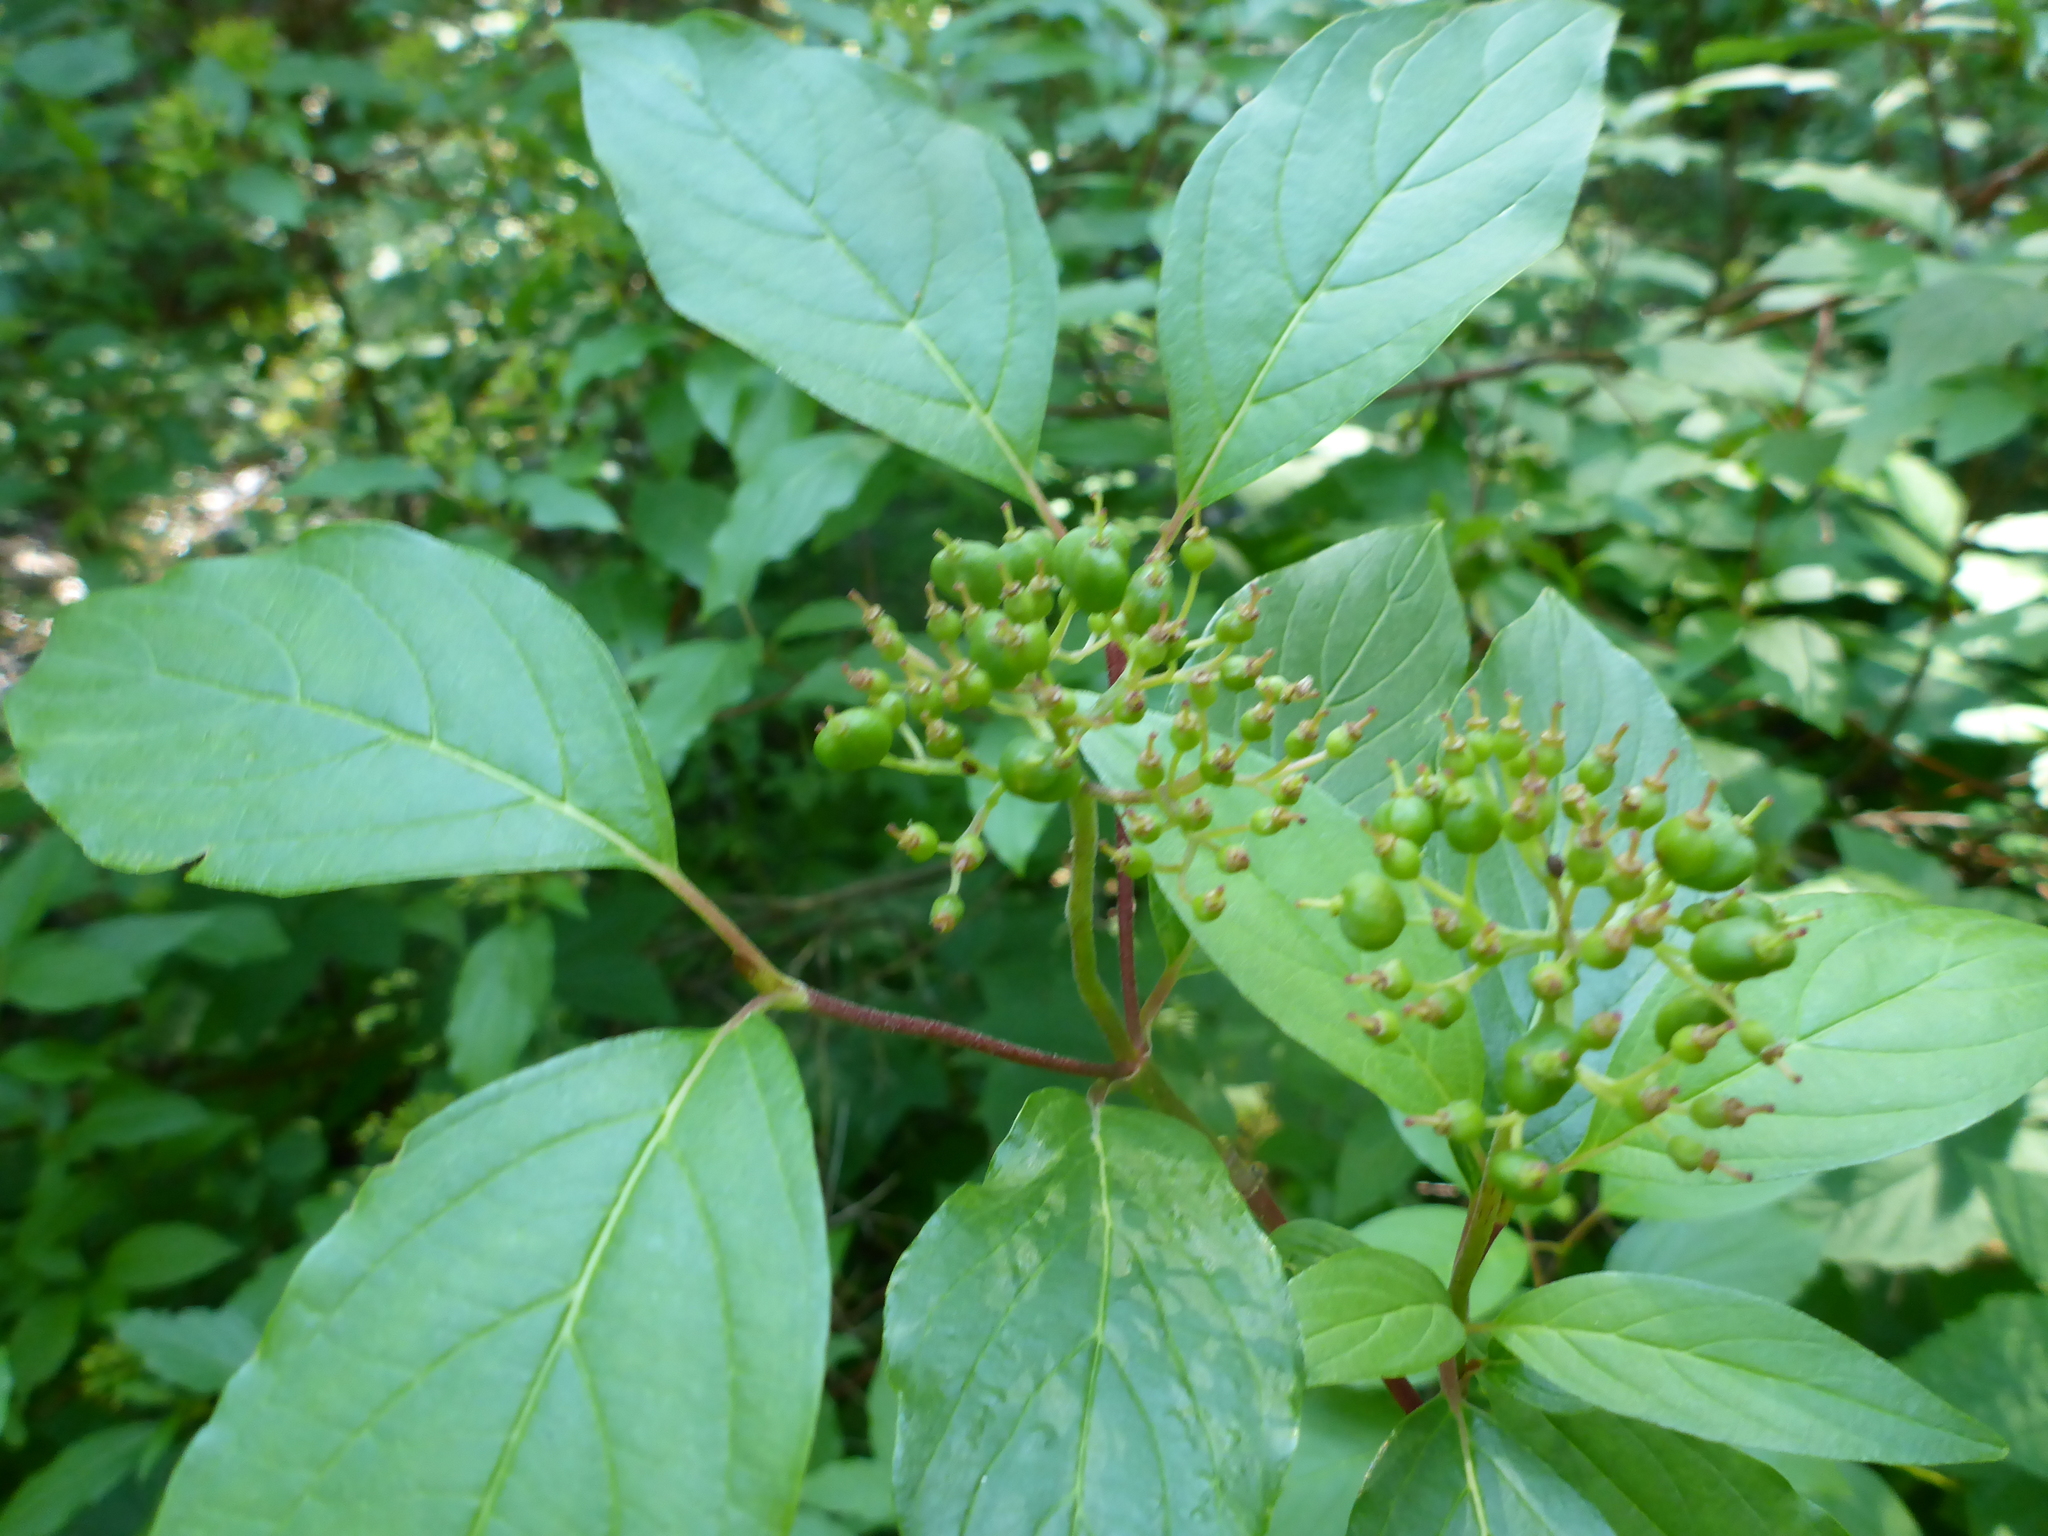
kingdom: Plantae
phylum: Tracheophyta
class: Magnoliopsida
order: Cornales
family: Cornaceae
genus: Cornus
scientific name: Cornus sericea
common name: Red-osier dogwood
